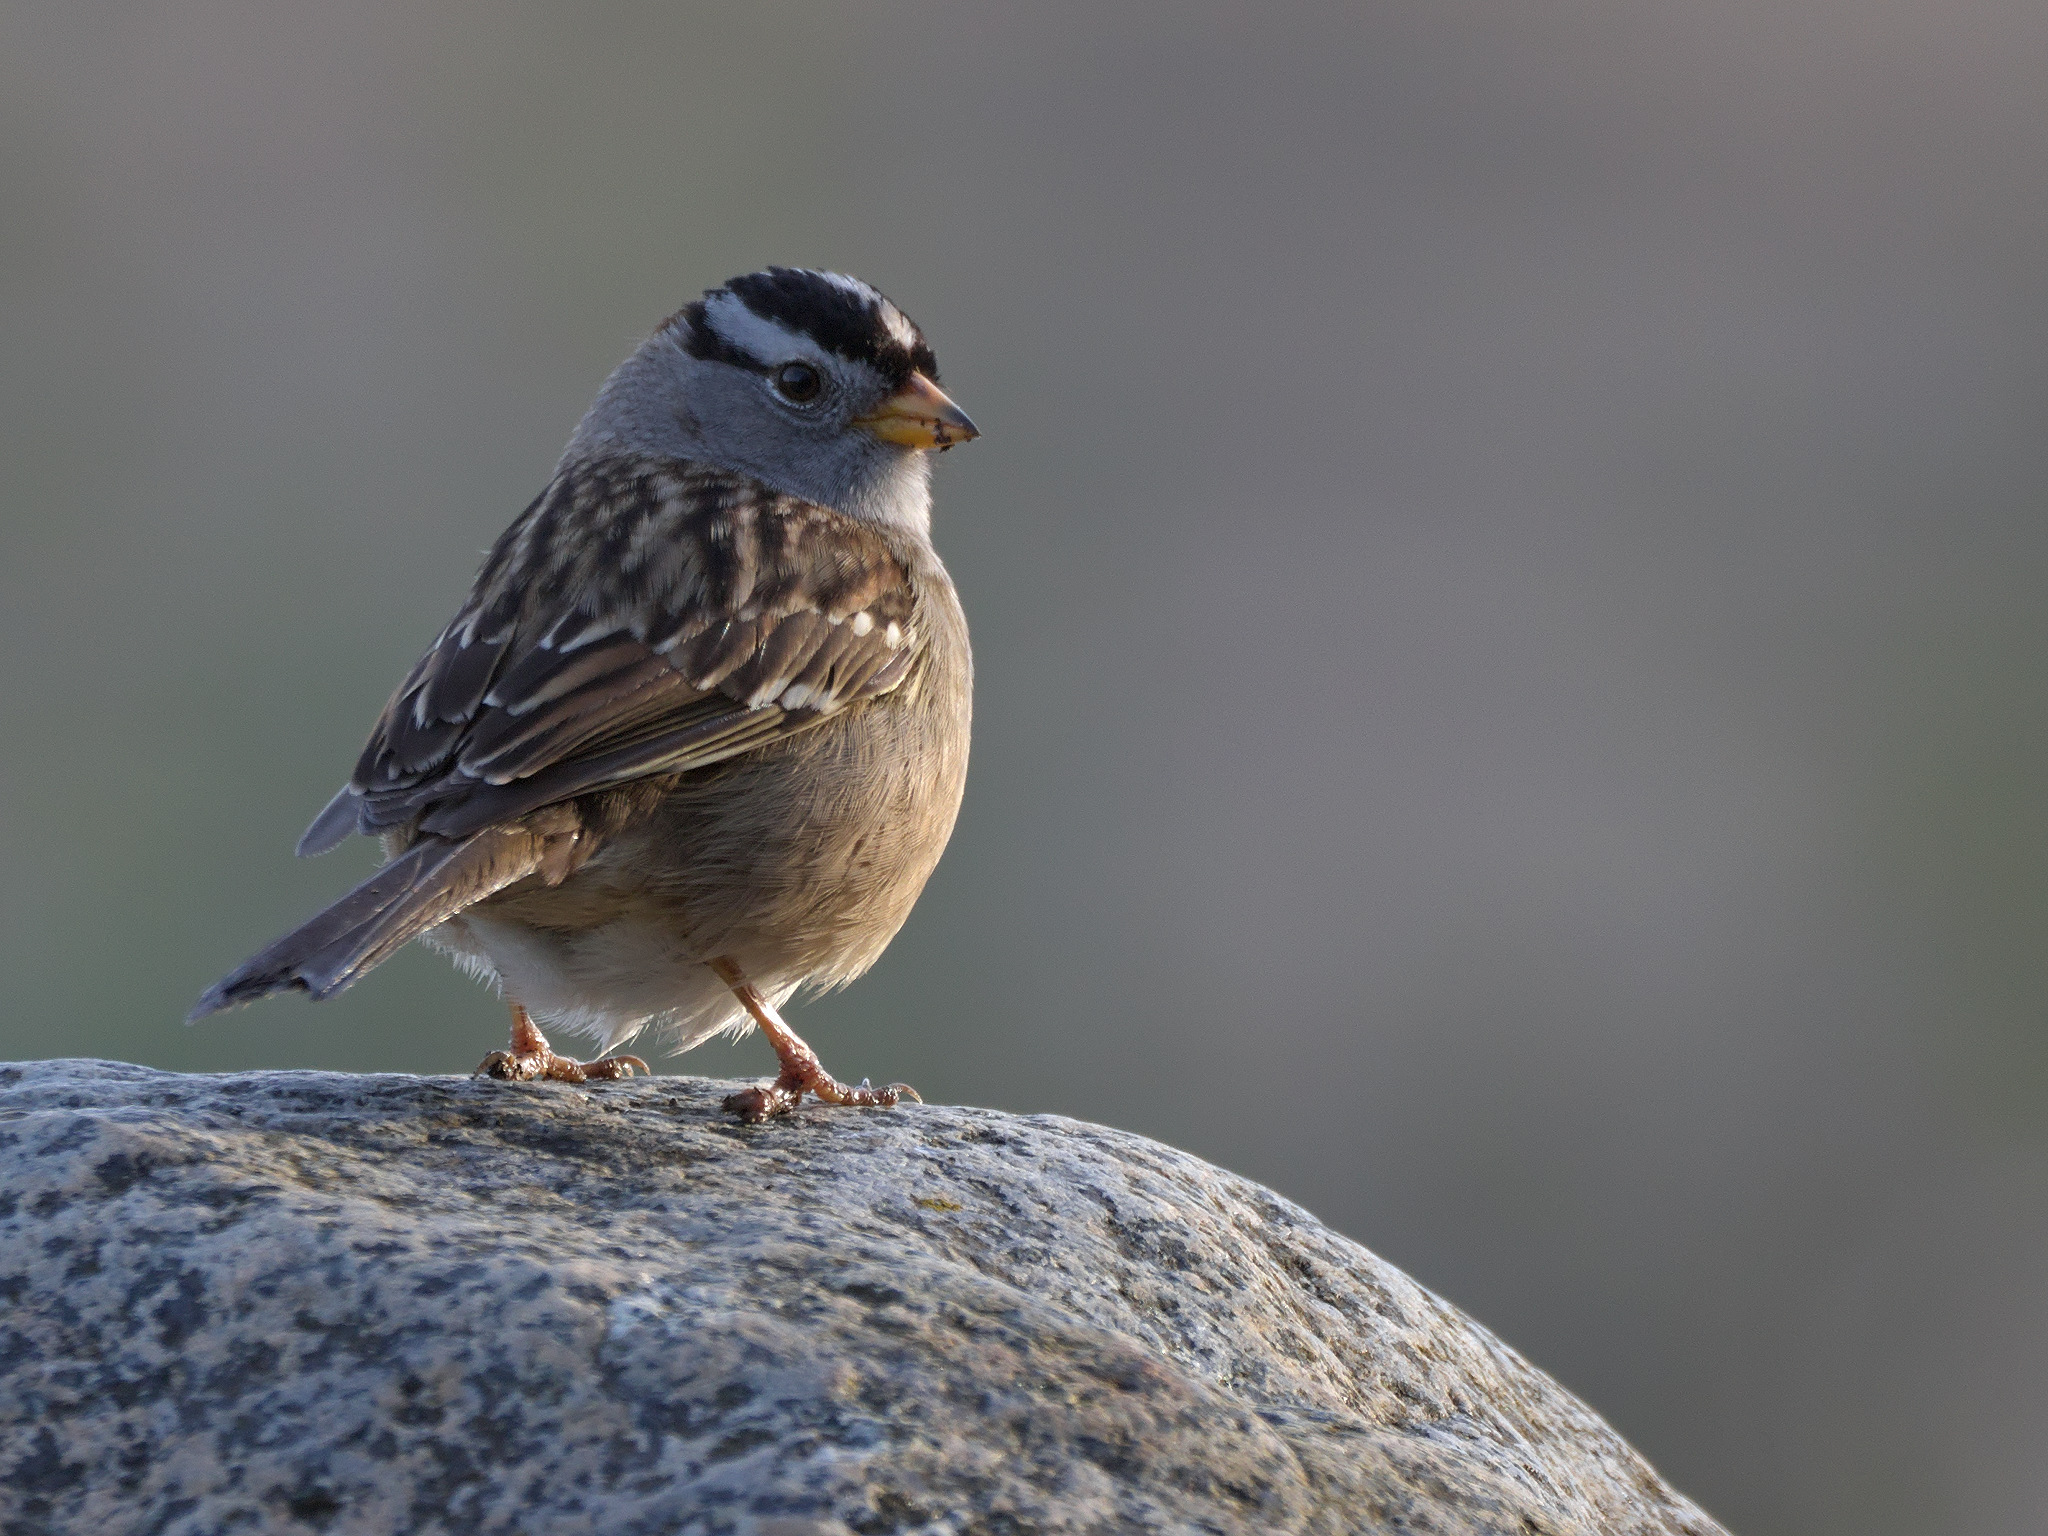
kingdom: Animalia
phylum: Chordata
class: Aves
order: Passeriformes
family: Passerellidae
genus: Zonotrichia
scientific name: Zonotrichia leucophrys
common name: White-crowned sparrow
